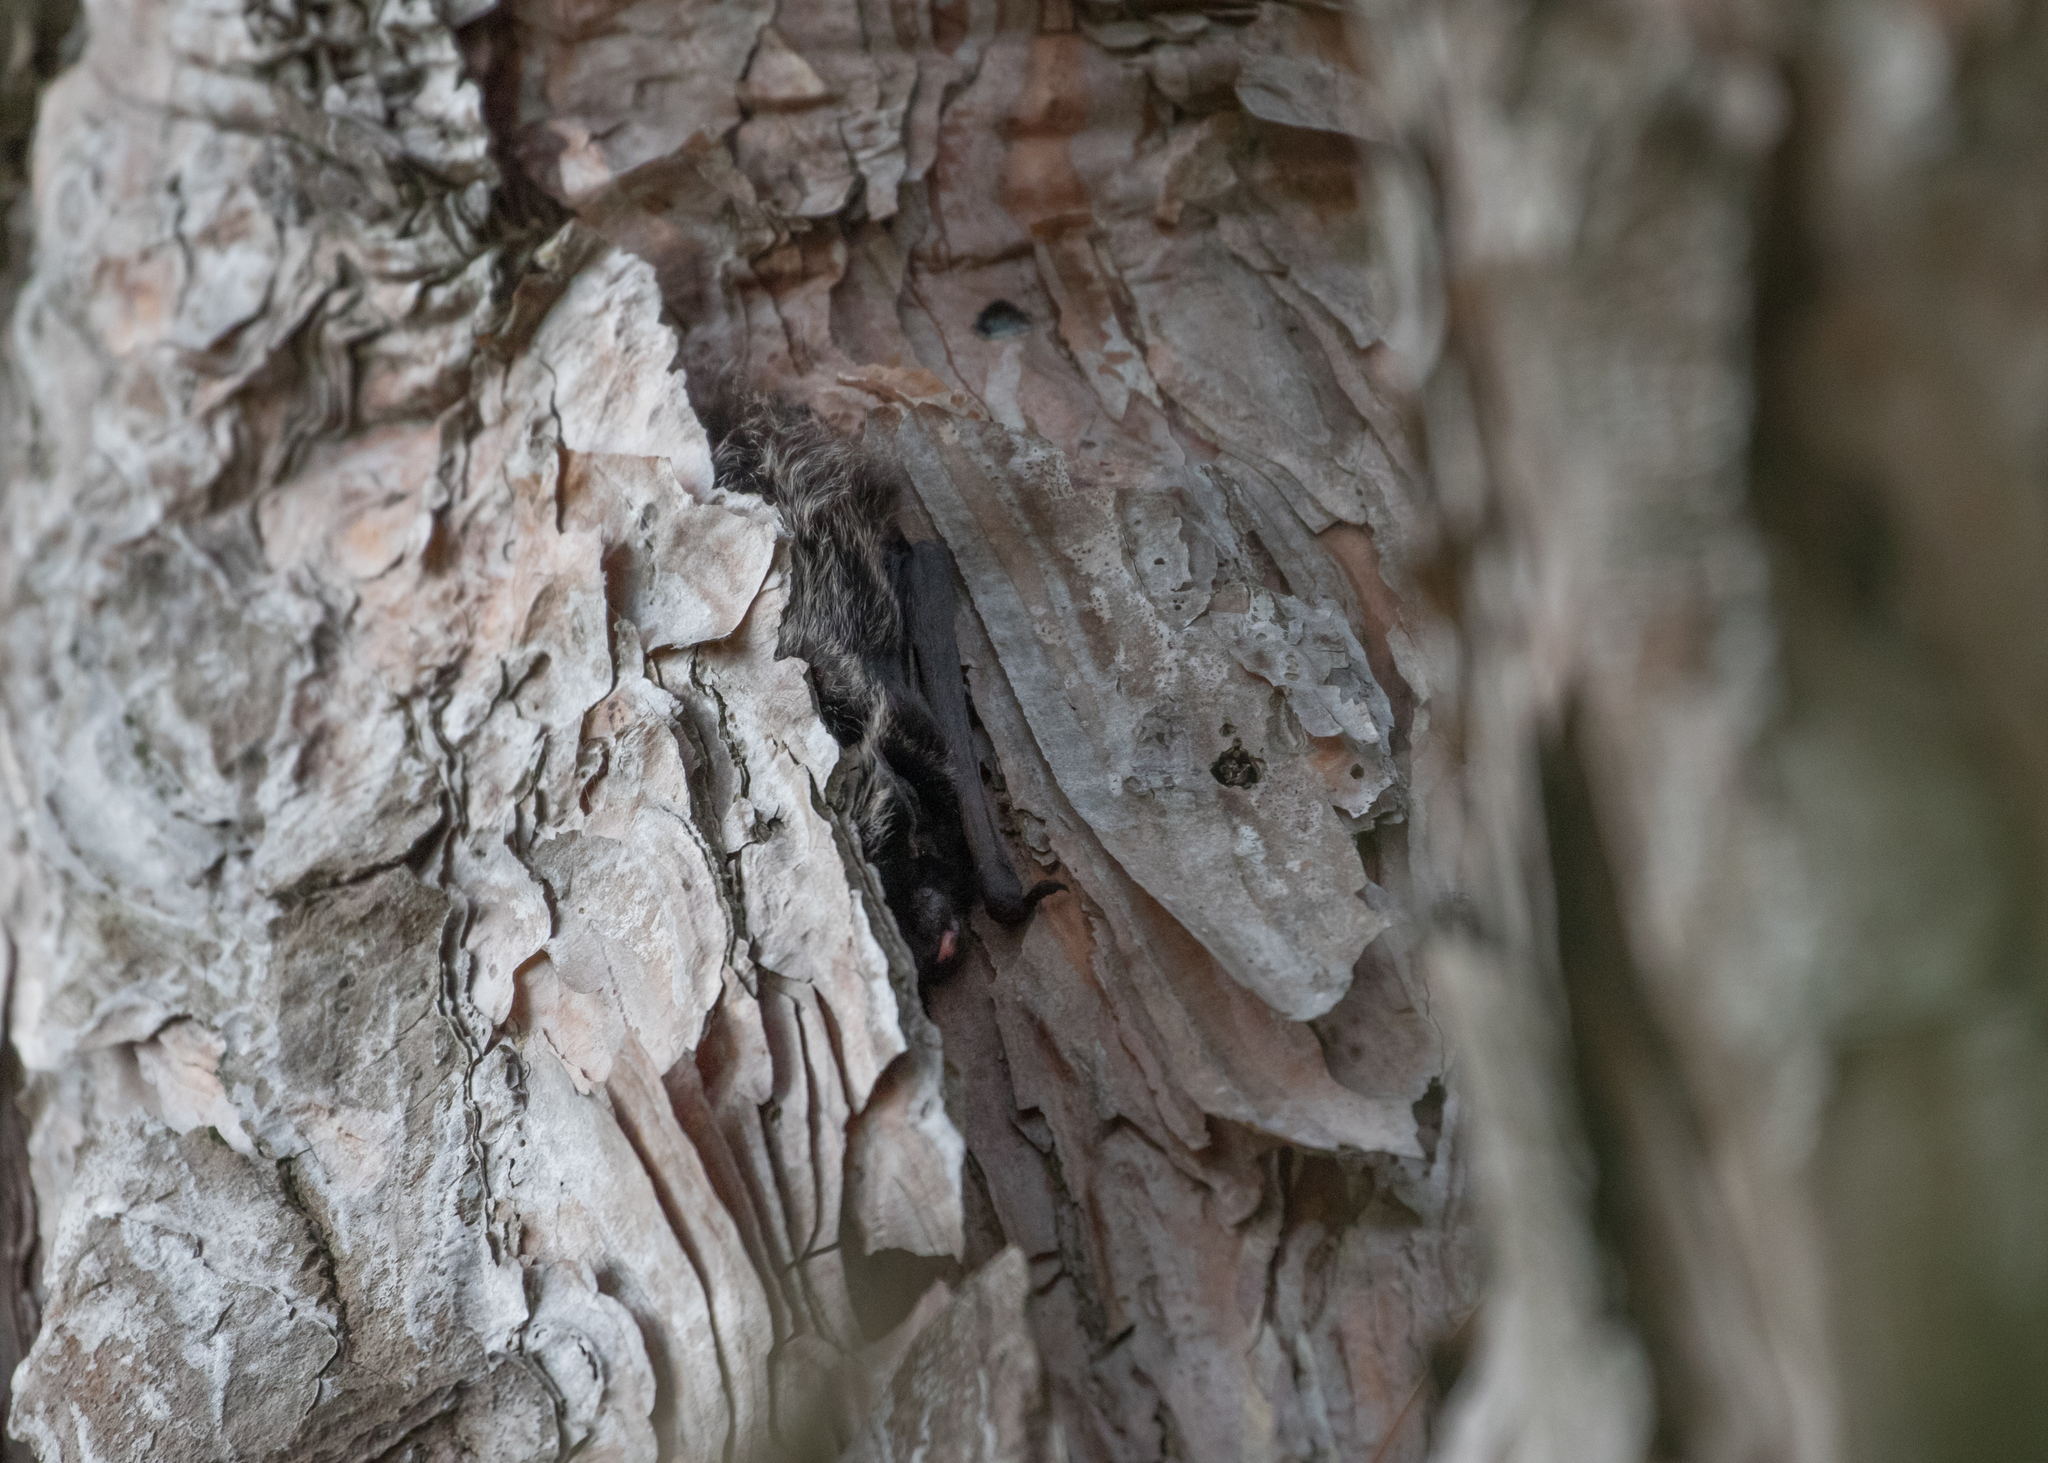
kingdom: Animalia
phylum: Chordata
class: Mammalia
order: Chiroptera
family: Vespertilionidae
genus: Lasionycteris
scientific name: Lasionycteris noctivagans
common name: Silver-haired bat
